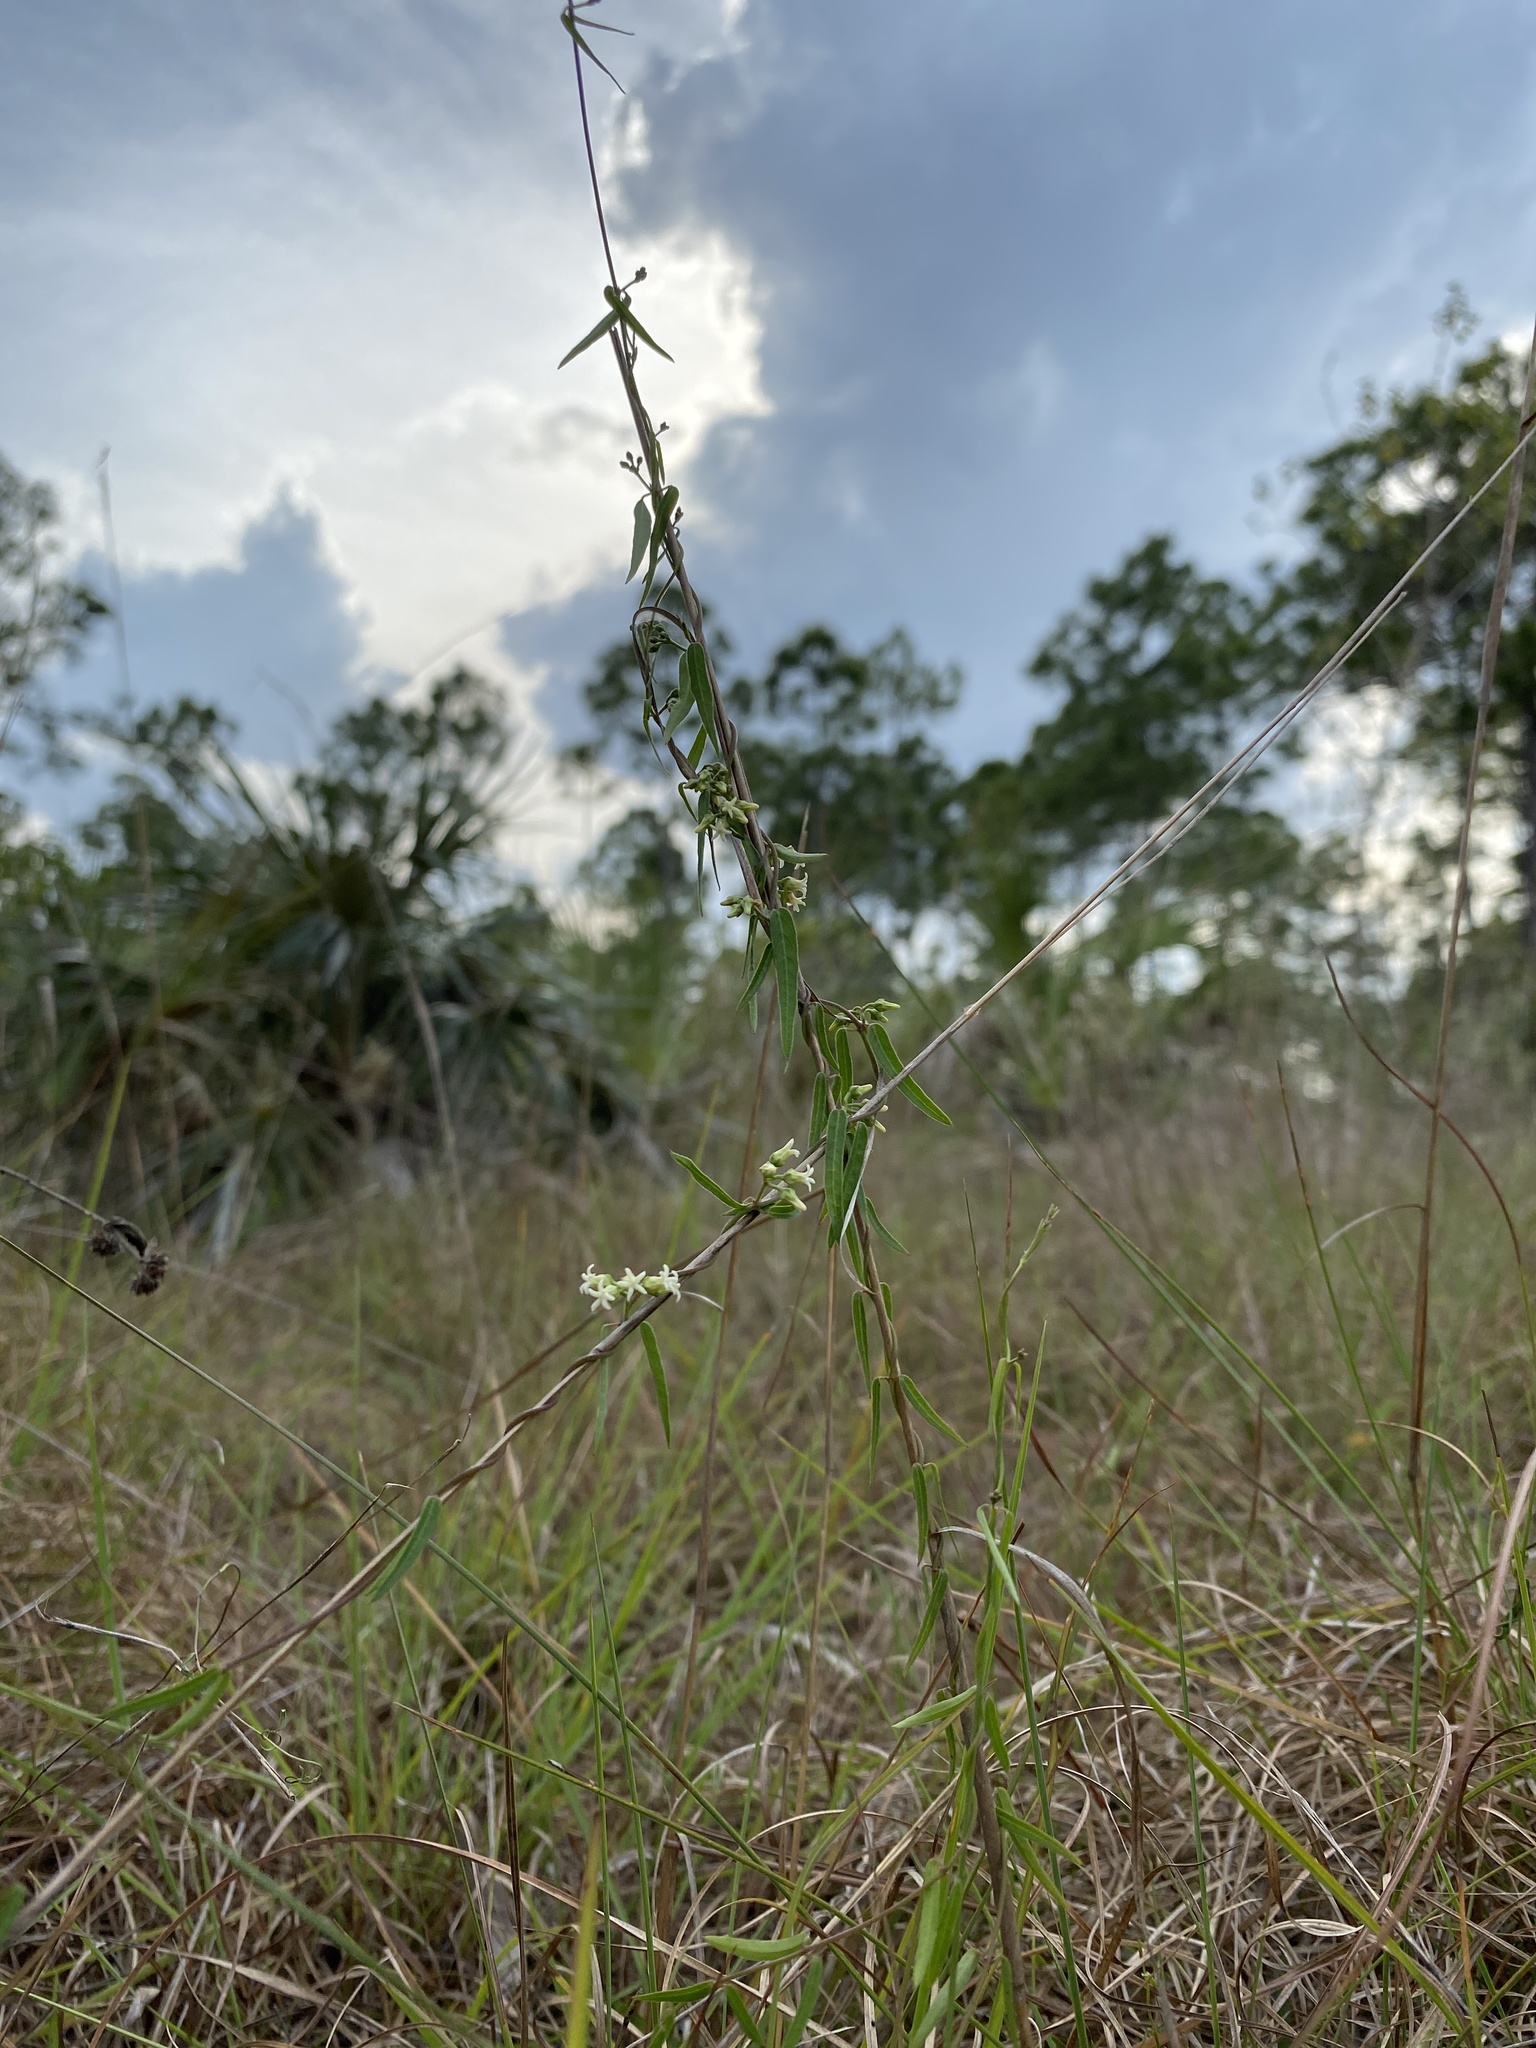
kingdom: Plantae
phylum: Tracheophyta
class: Magnoliopsida
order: Gentianales
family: Apocynaceae
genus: Metastelma
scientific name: Metastelma blodgettii
